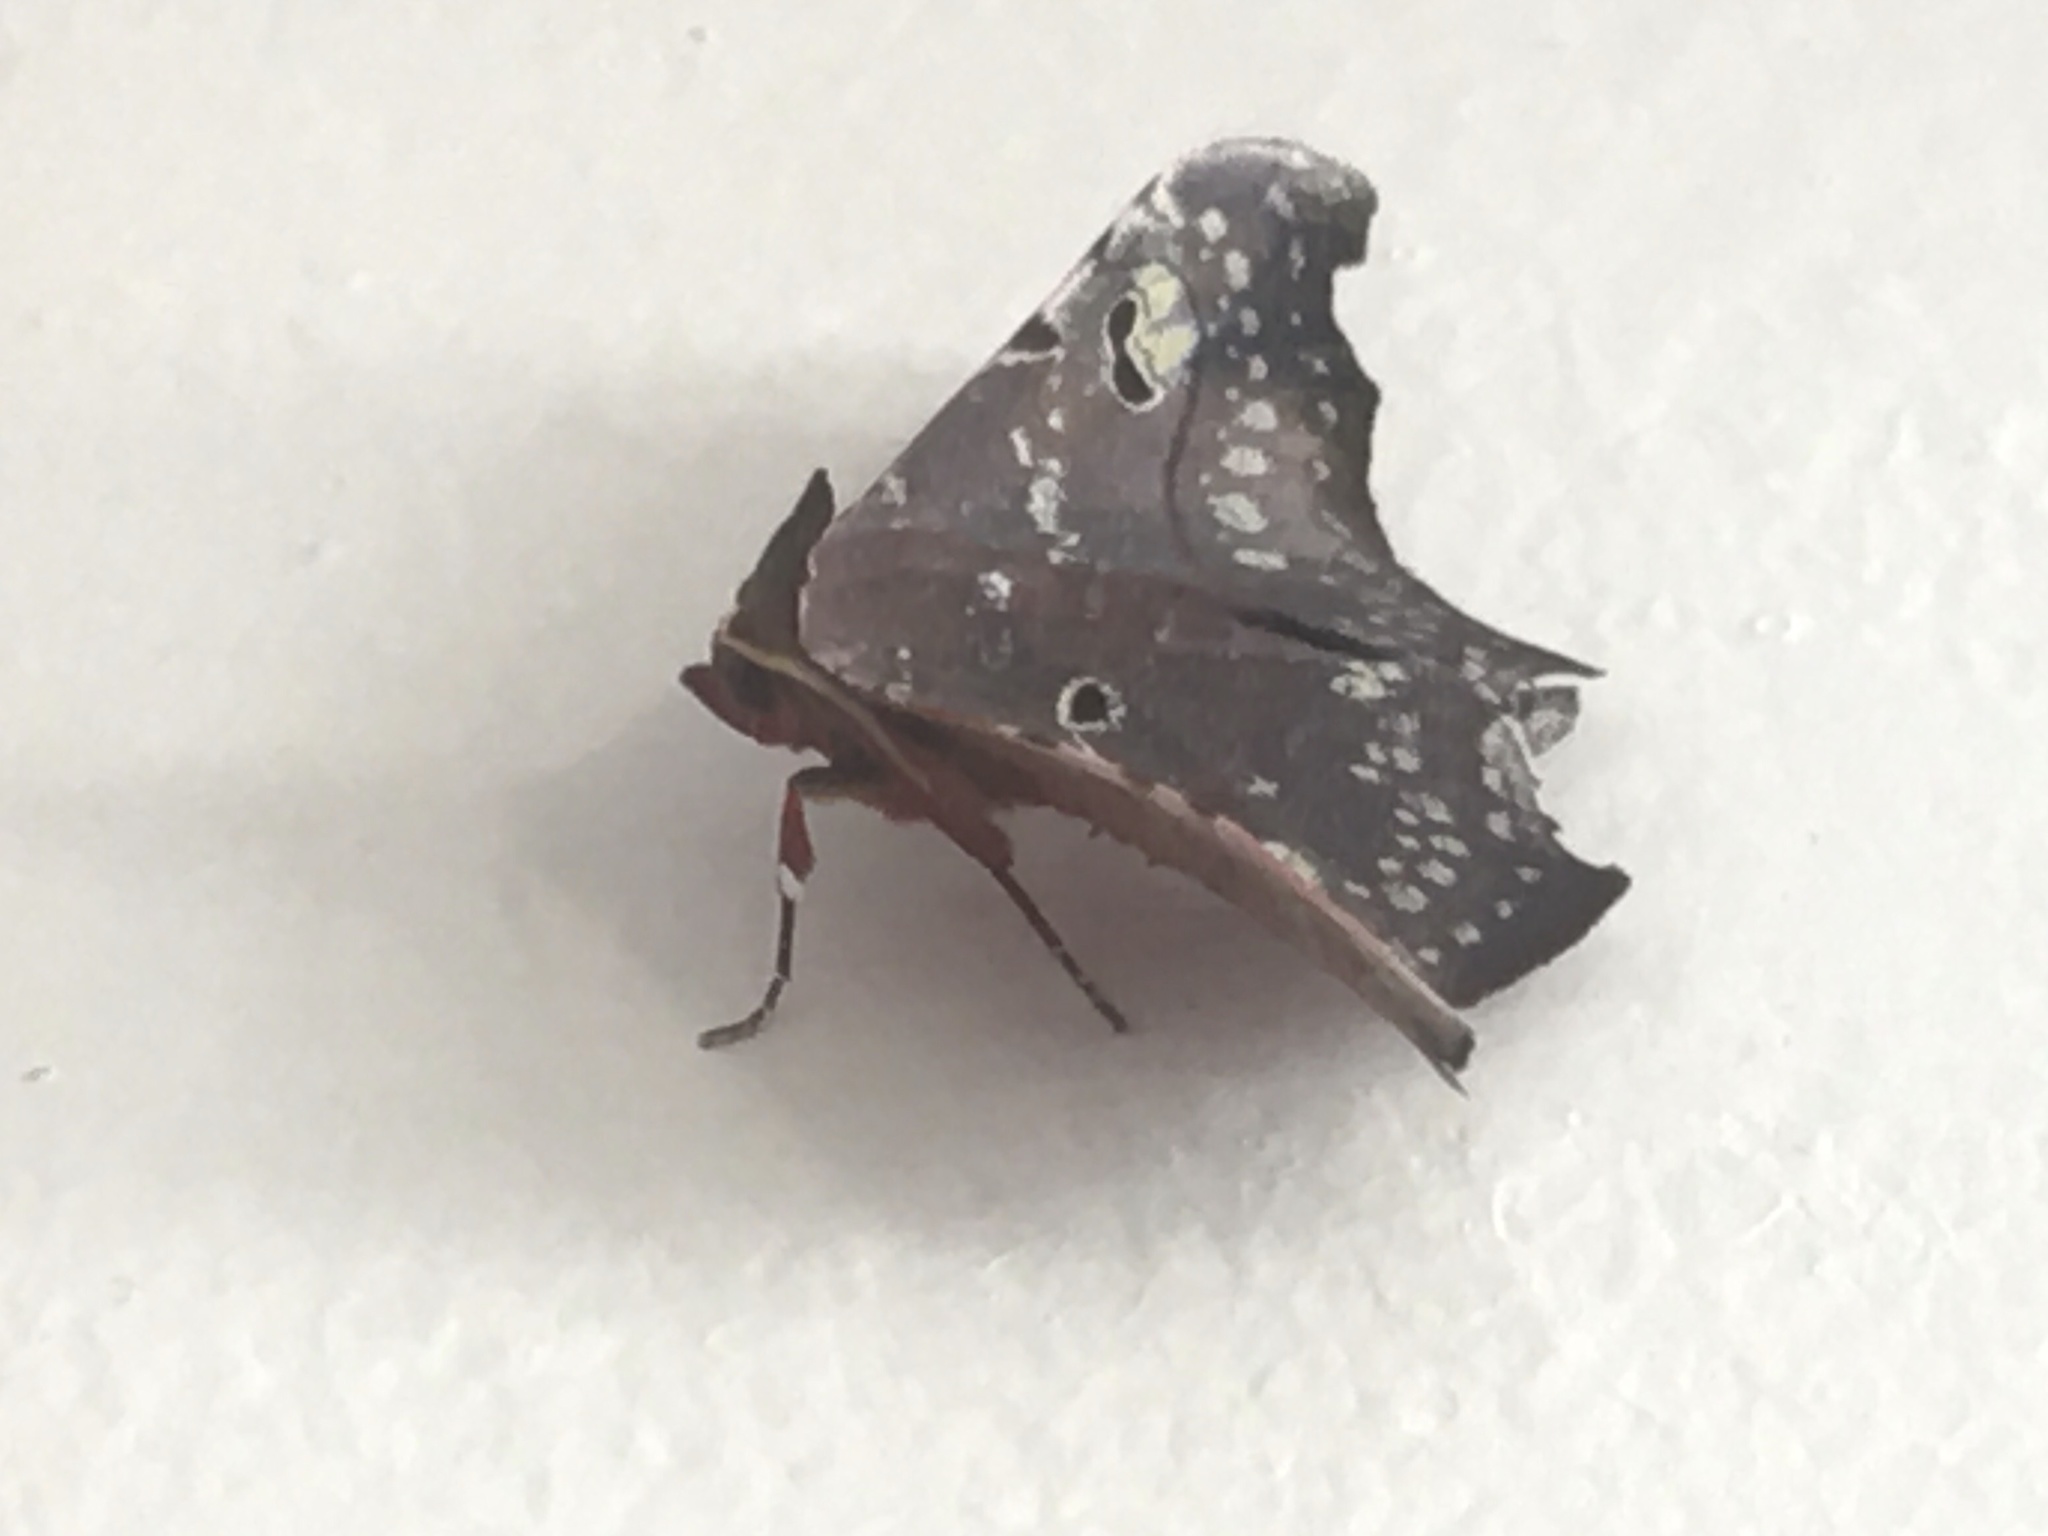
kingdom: Animalia
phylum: Arthropoda
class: Insecta
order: Lepidoptera
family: Erebidae
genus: Tautobriga
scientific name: Tautobriga euspila
